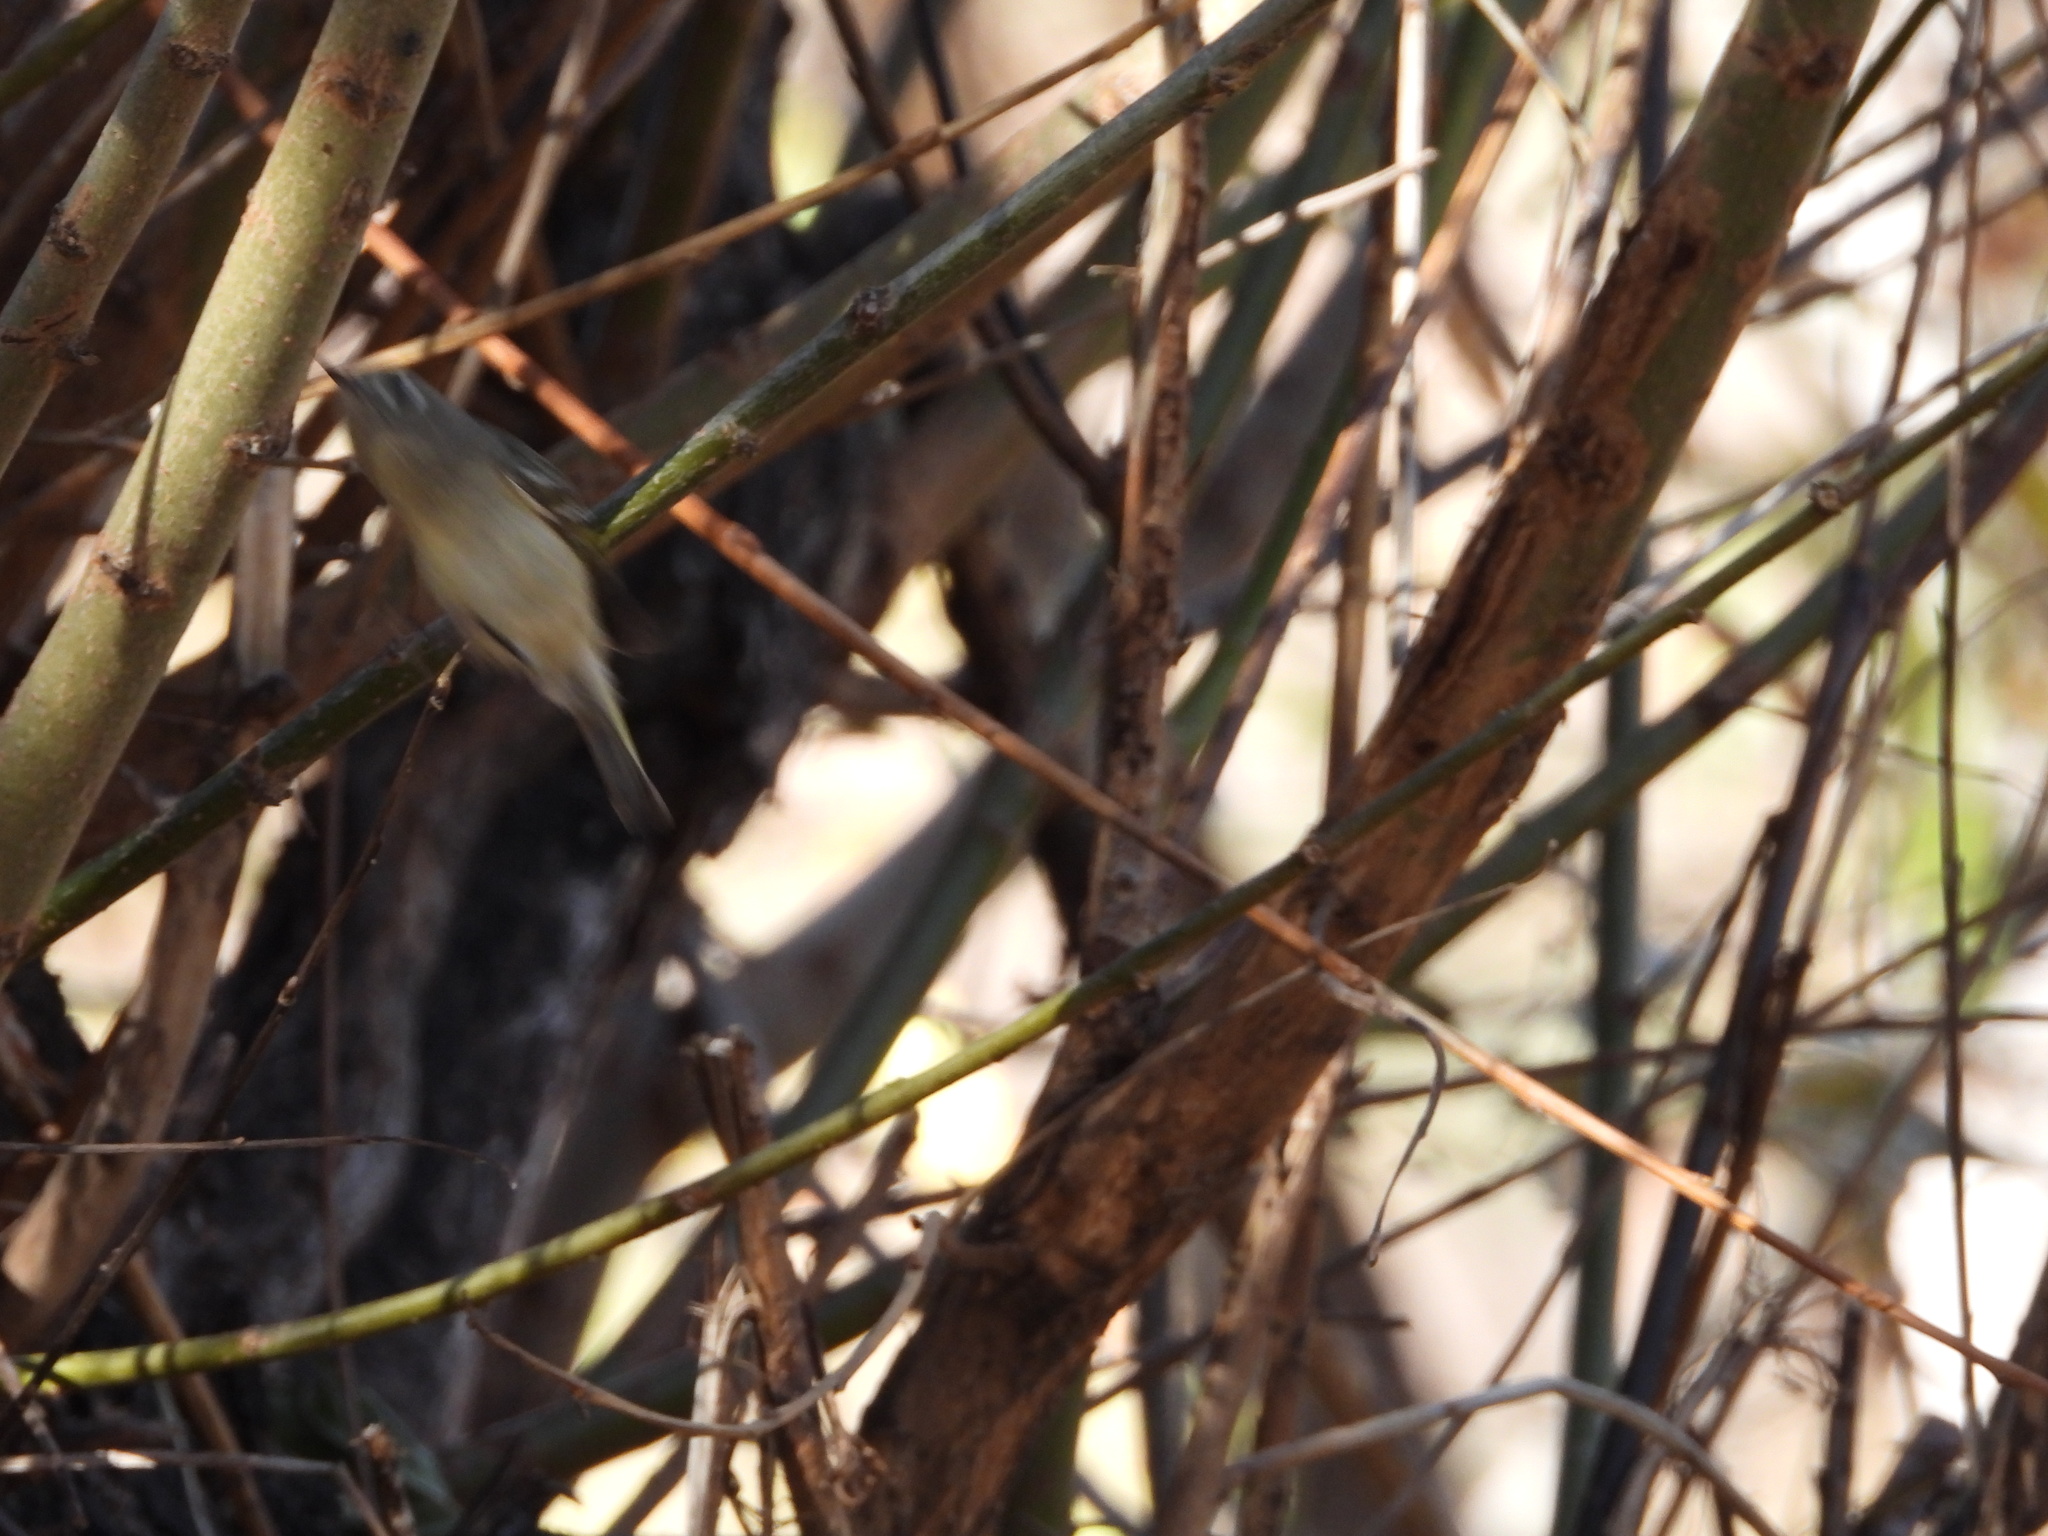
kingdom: Animalia
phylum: Chordata
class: Aves
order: Passeriformes
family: Regulidae
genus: Regulus
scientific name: Regulus calendula
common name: Ruby-crowned kinglet
